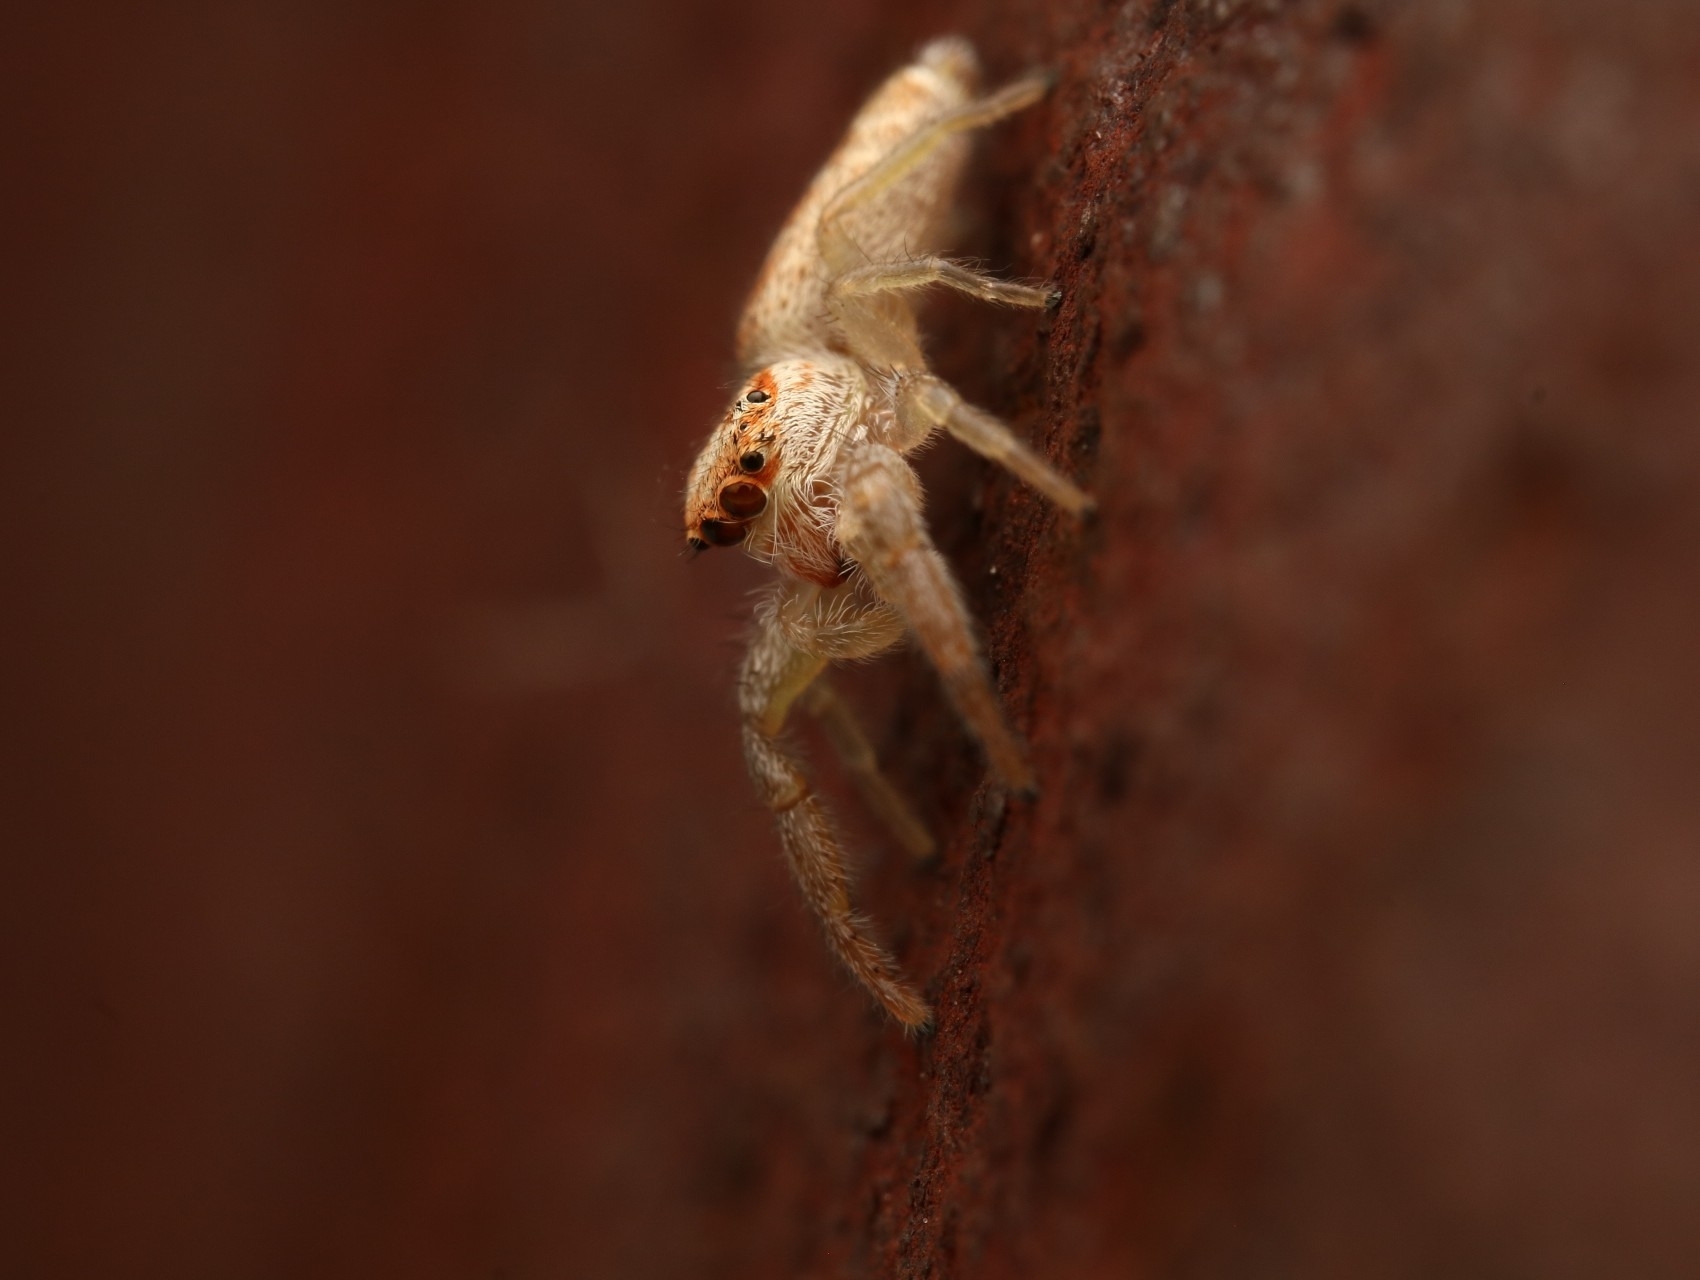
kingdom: Animalia
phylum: Arthropoda
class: Arachnida
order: Araneae
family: Salticidae
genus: Hentzia
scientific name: Hentzia mitrata
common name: White-jawed jumping spider
